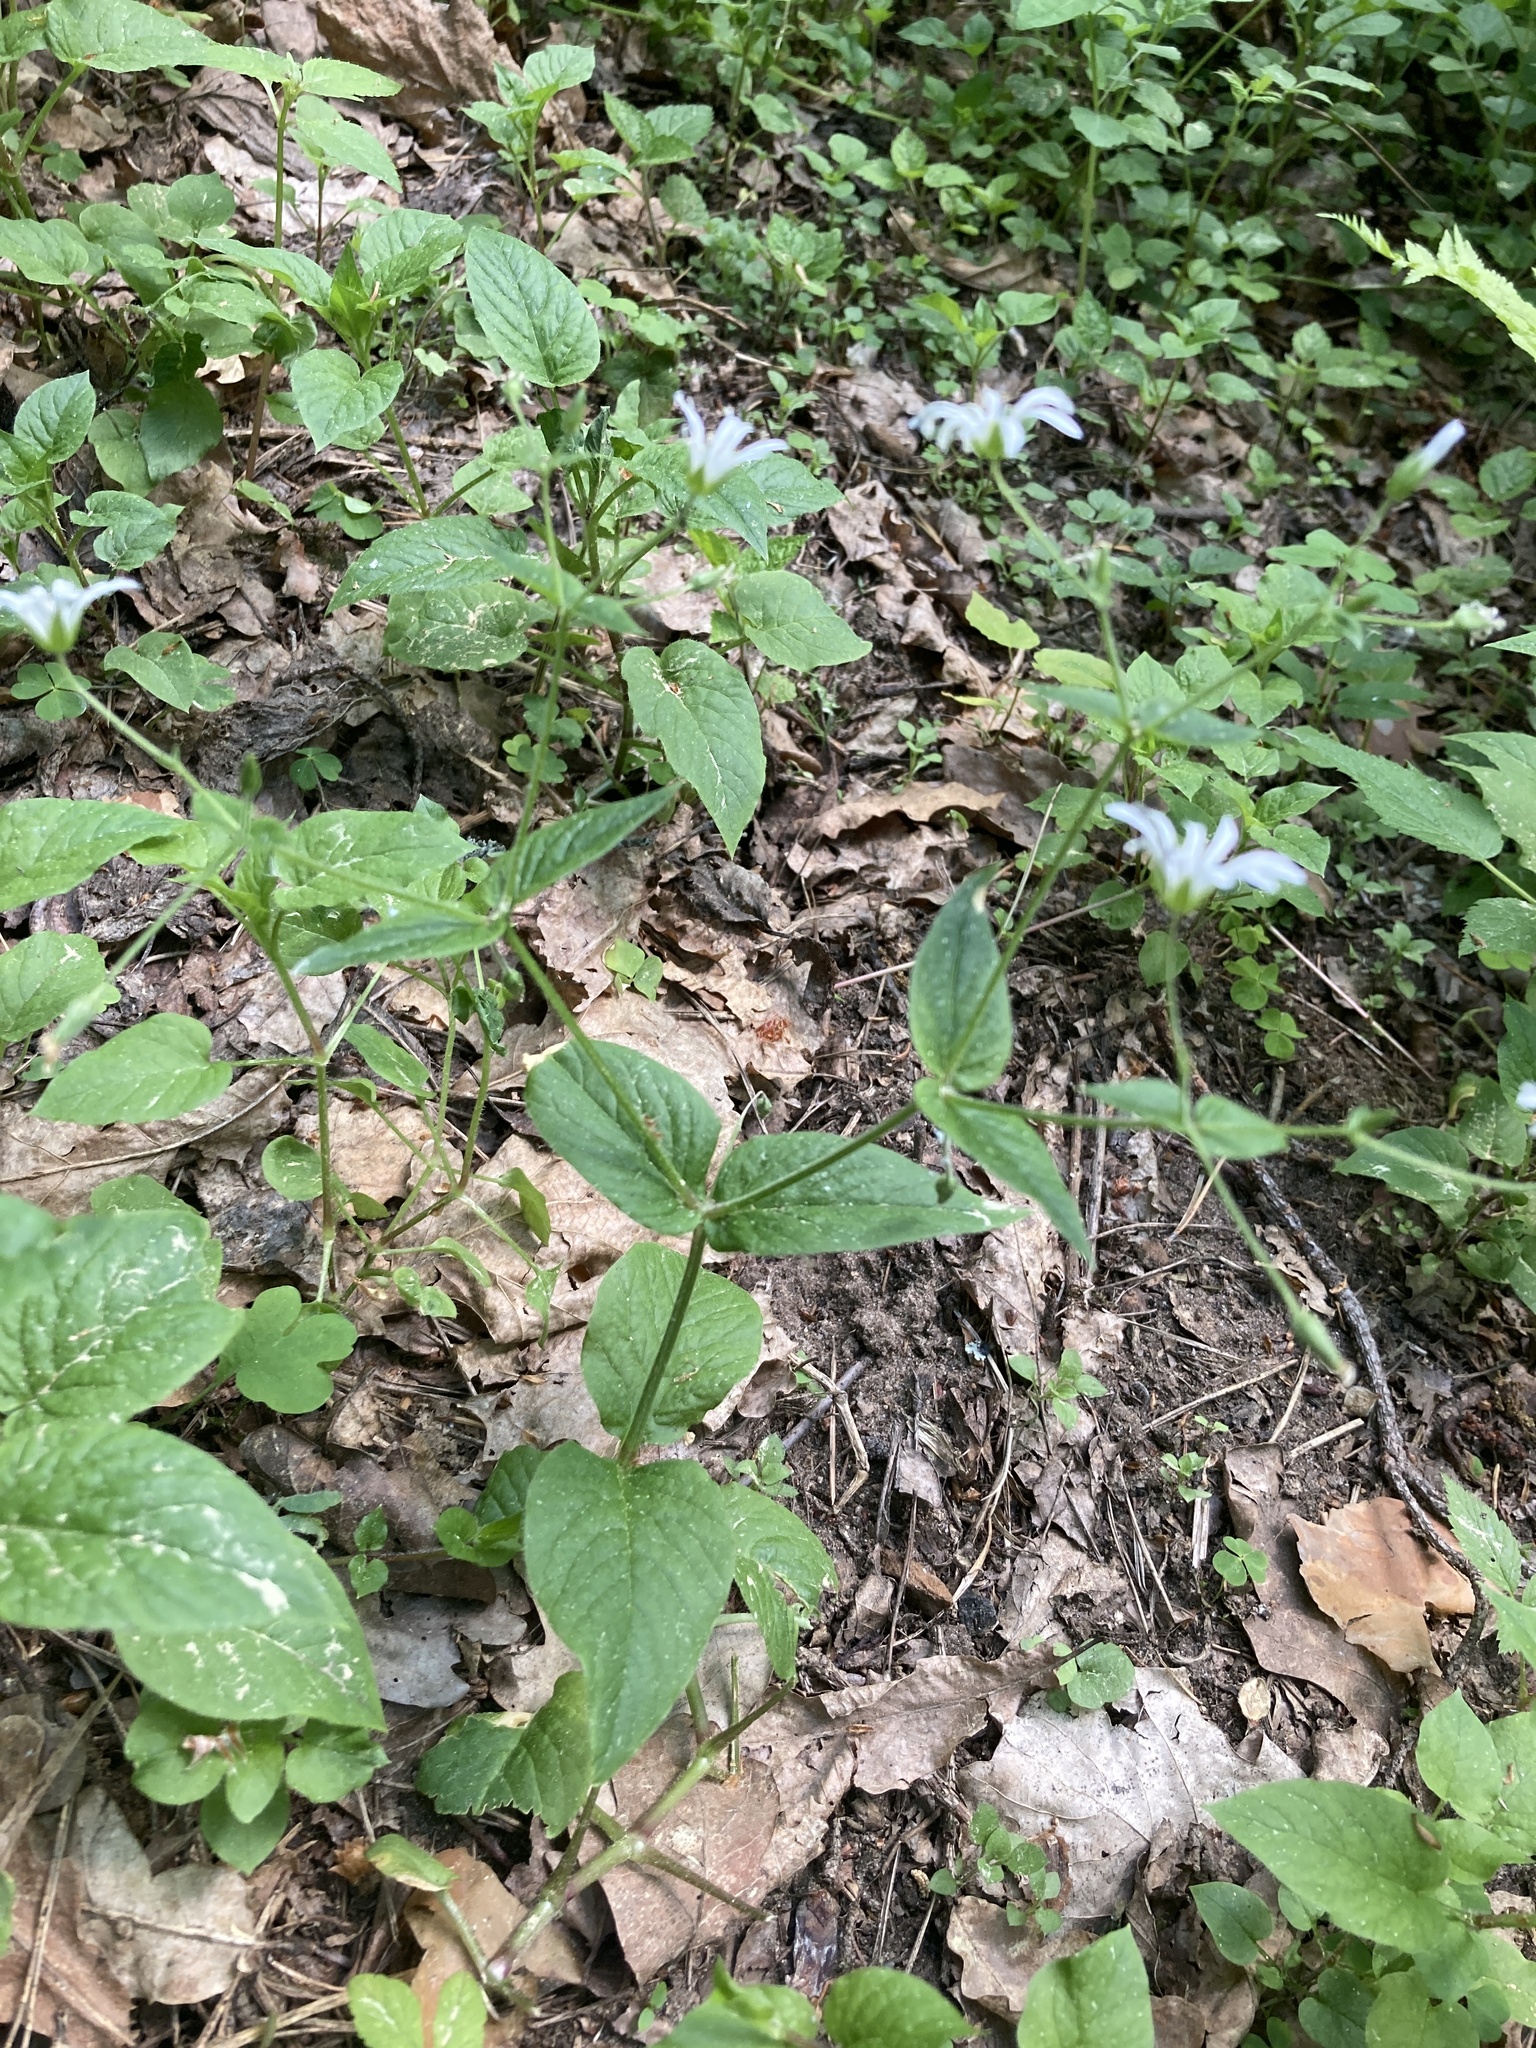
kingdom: Plantae
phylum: Tracheophyta
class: Magnoliopsida
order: Caryophyllales
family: Caryophyllaceae
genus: Stellaria
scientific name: Stellaria nemorum
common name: Wood stitchwort
